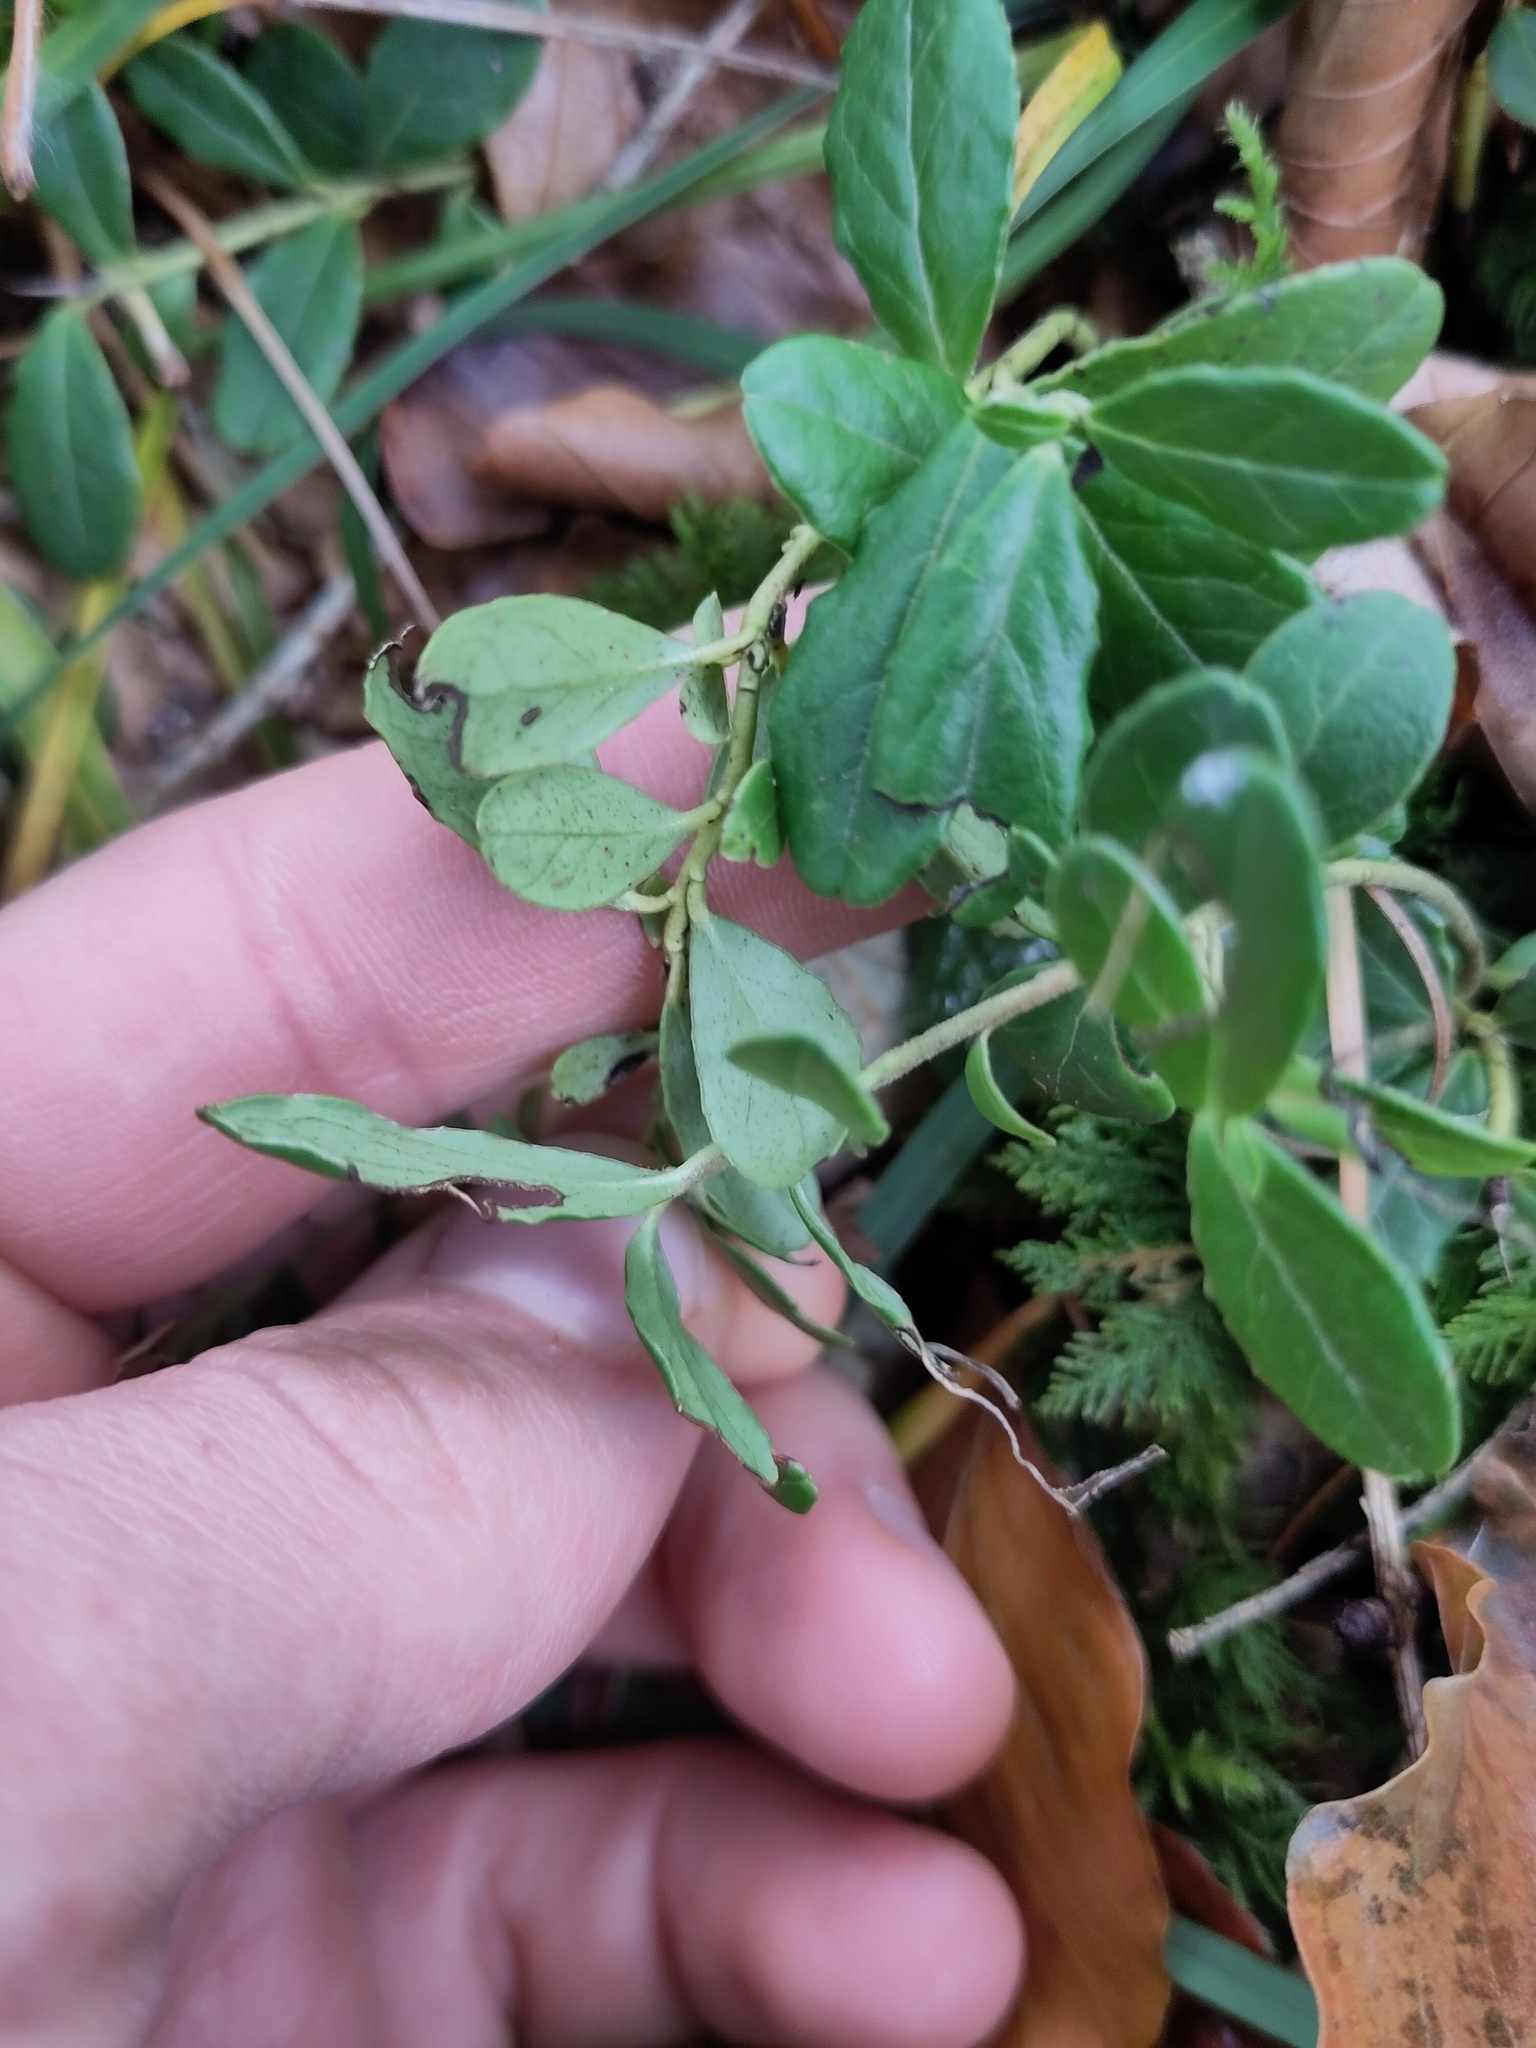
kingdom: Plantae
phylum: Tracheophyta
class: Magnoliopsida
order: Ericales
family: Ericaceae
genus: Vaccinium
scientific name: Vaccinium vitis-idaea
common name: Cowberry
